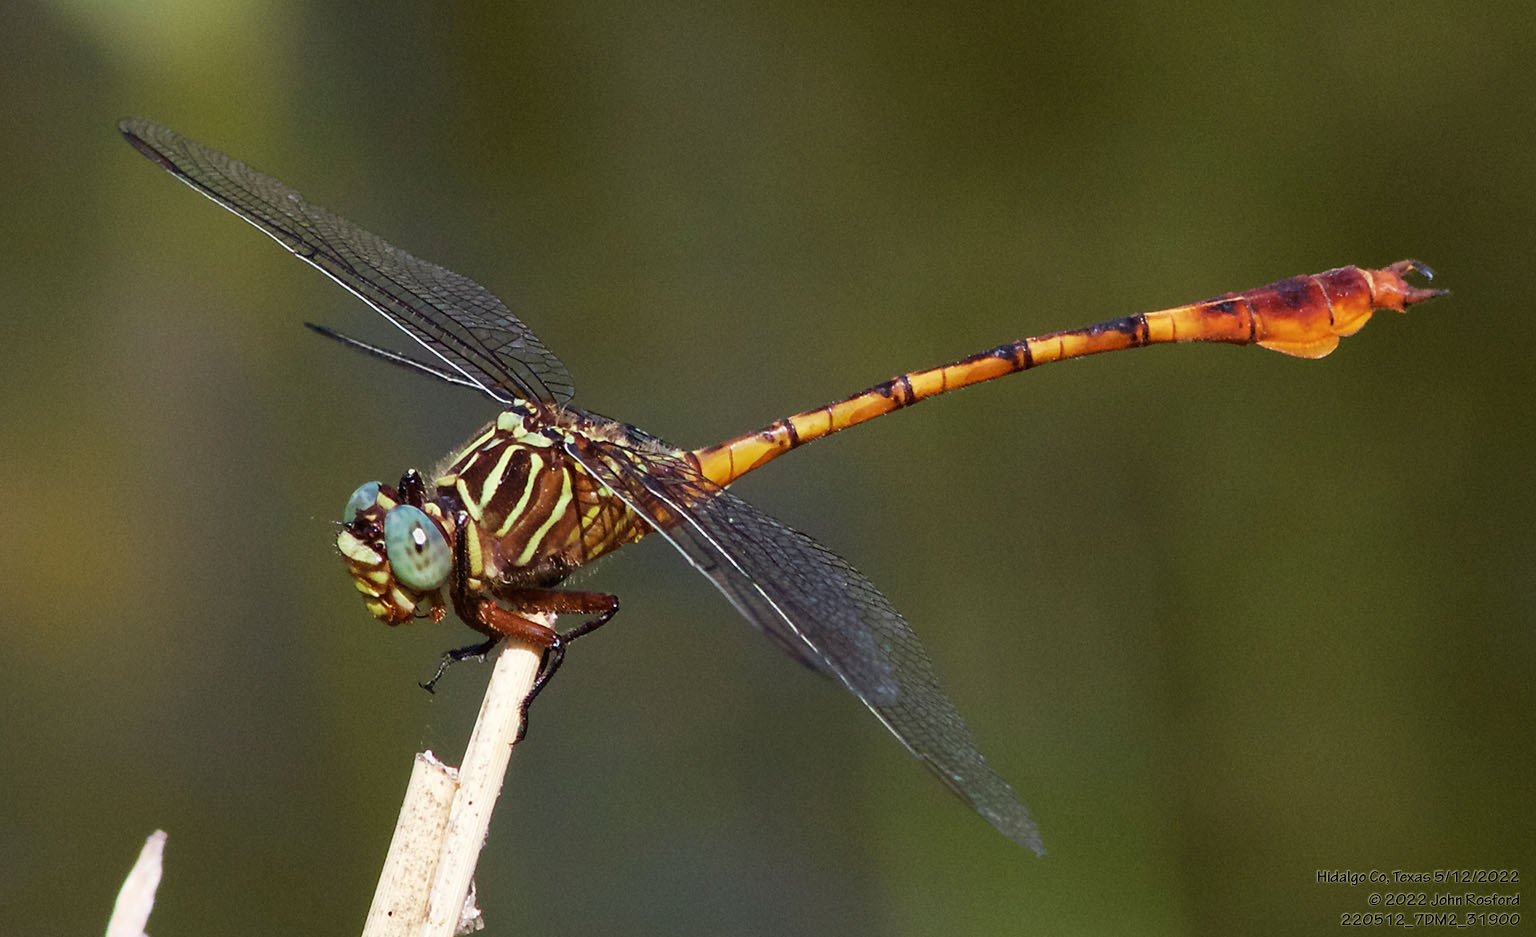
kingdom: Animalia
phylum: Arthropoda
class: Insecta
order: Odonata
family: Gomphidae
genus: Aphylla
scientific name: Aphylla protracta
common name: Narrow-striped forceptail
